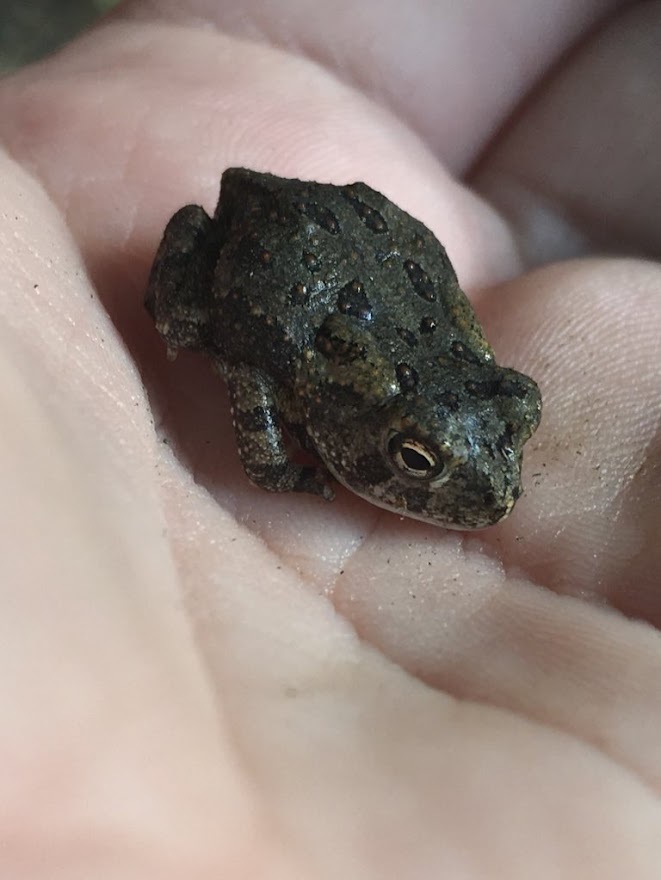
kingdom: Animalia
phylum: Chordata
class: Amphibia
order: Anura
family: Bufonidae
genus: Anaxyrus
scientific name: Anaxyrus fowleri
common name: Fowler's toad
